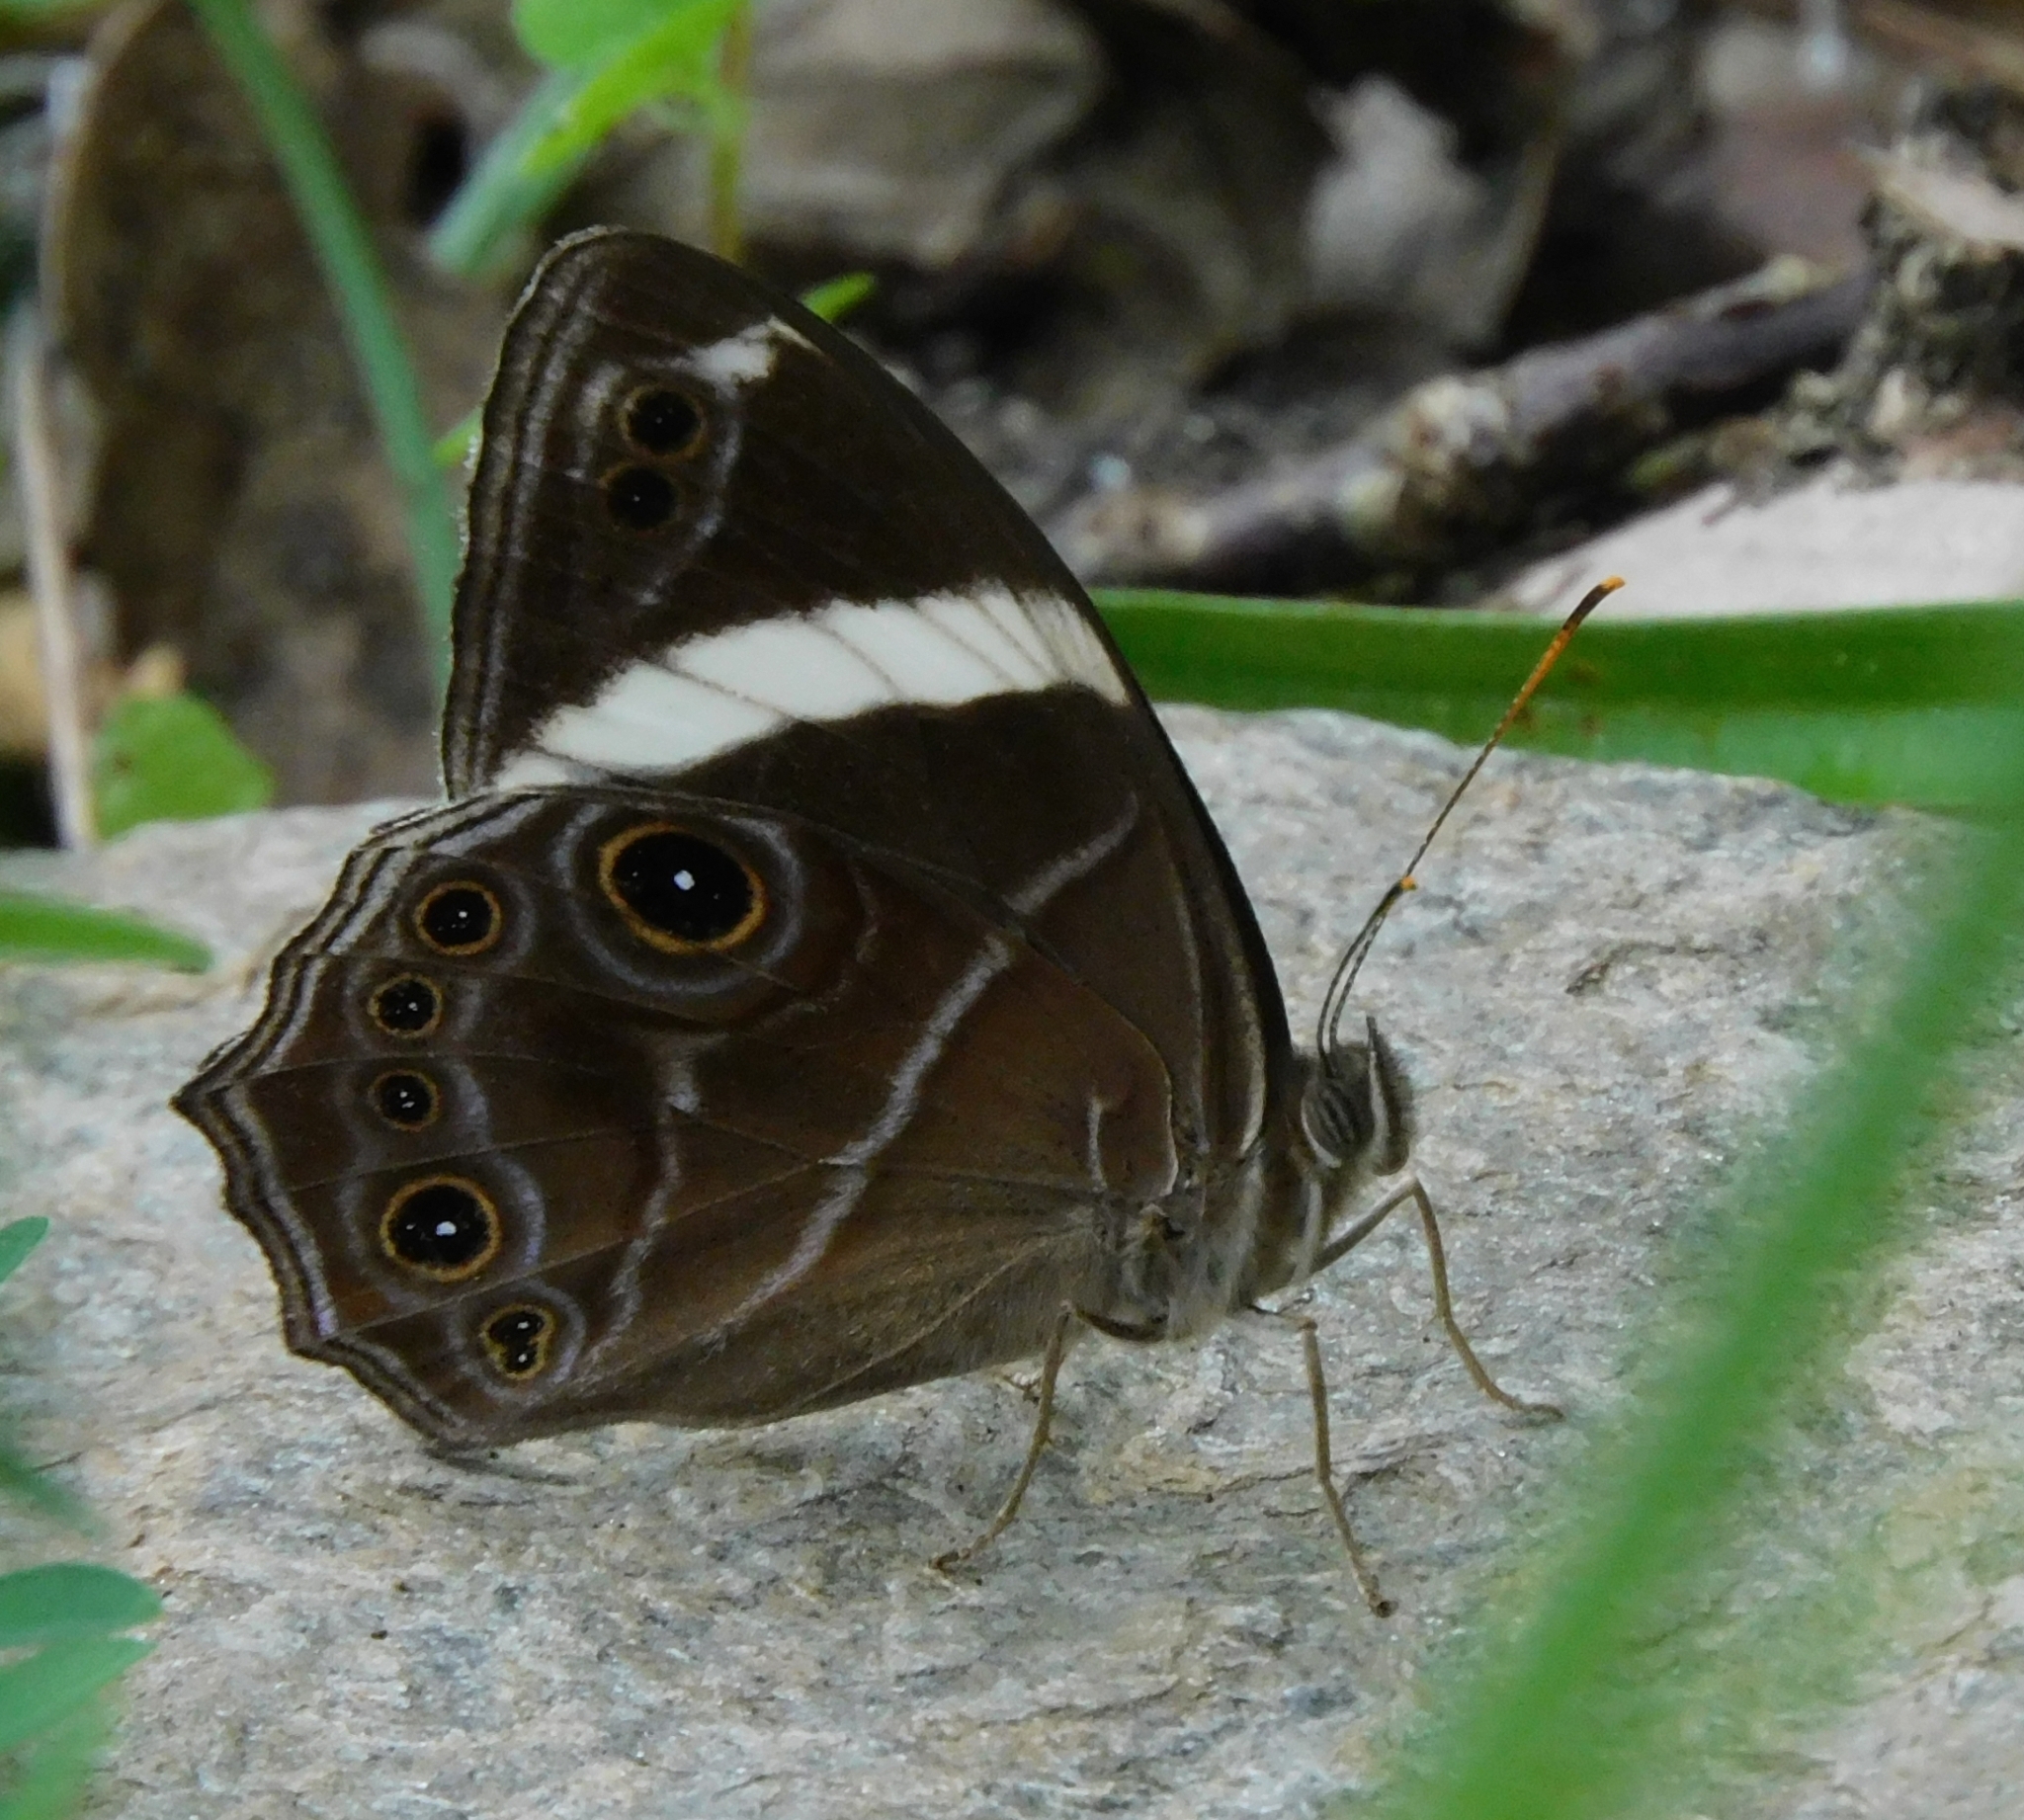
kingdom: Animalia
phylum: Arthropoda
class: Insecta
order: Lepidoptera
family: Nymphalidae
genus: Lethe
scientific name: Lethe confusa
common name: Banded treebrown
